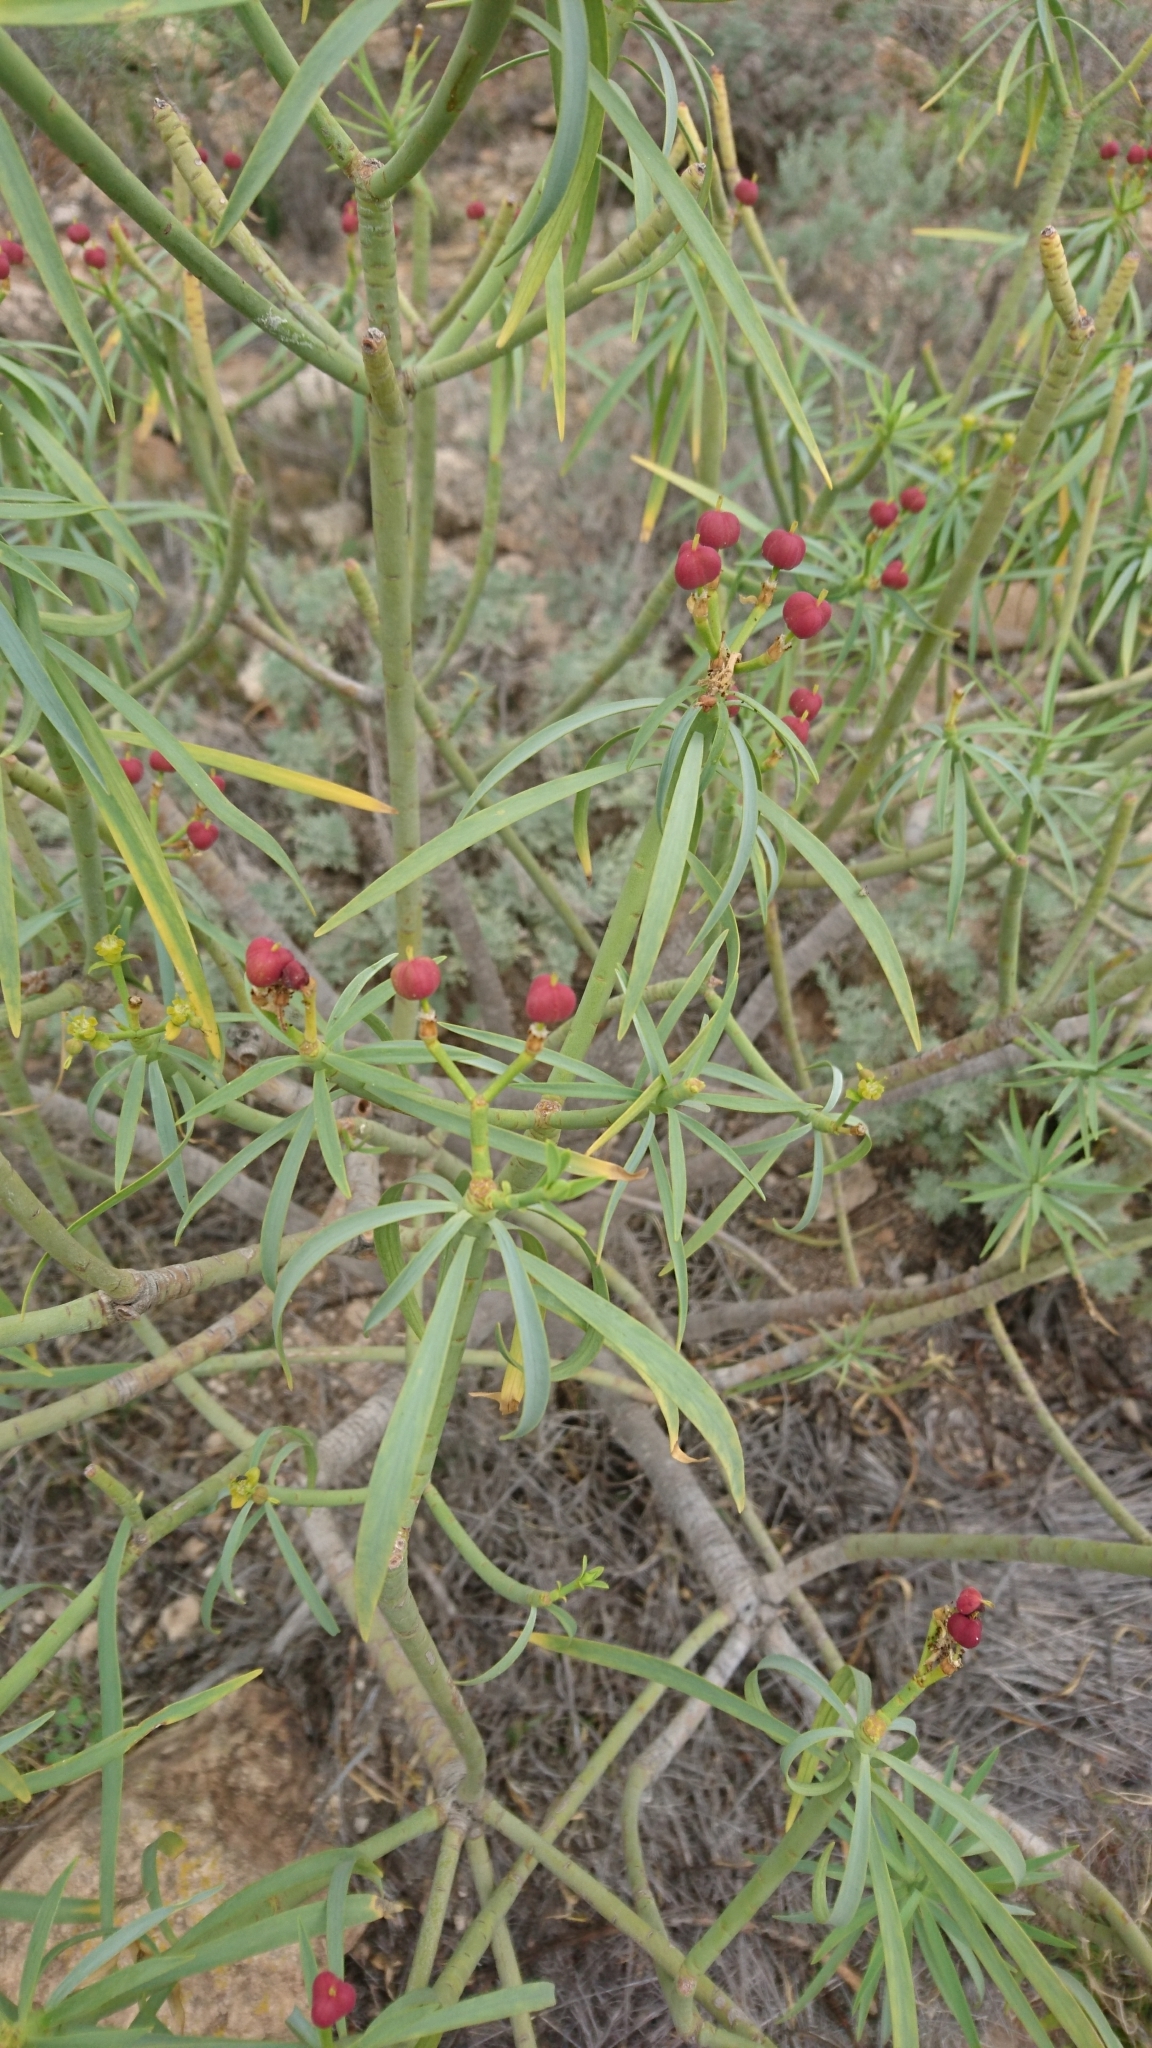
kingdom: Plantae
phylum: Tracheophyta
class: Magnoliopsida
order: Malpighiales
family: Euphorbiaceae
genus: Euphorbia
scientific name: Euphorbia lamarckii
